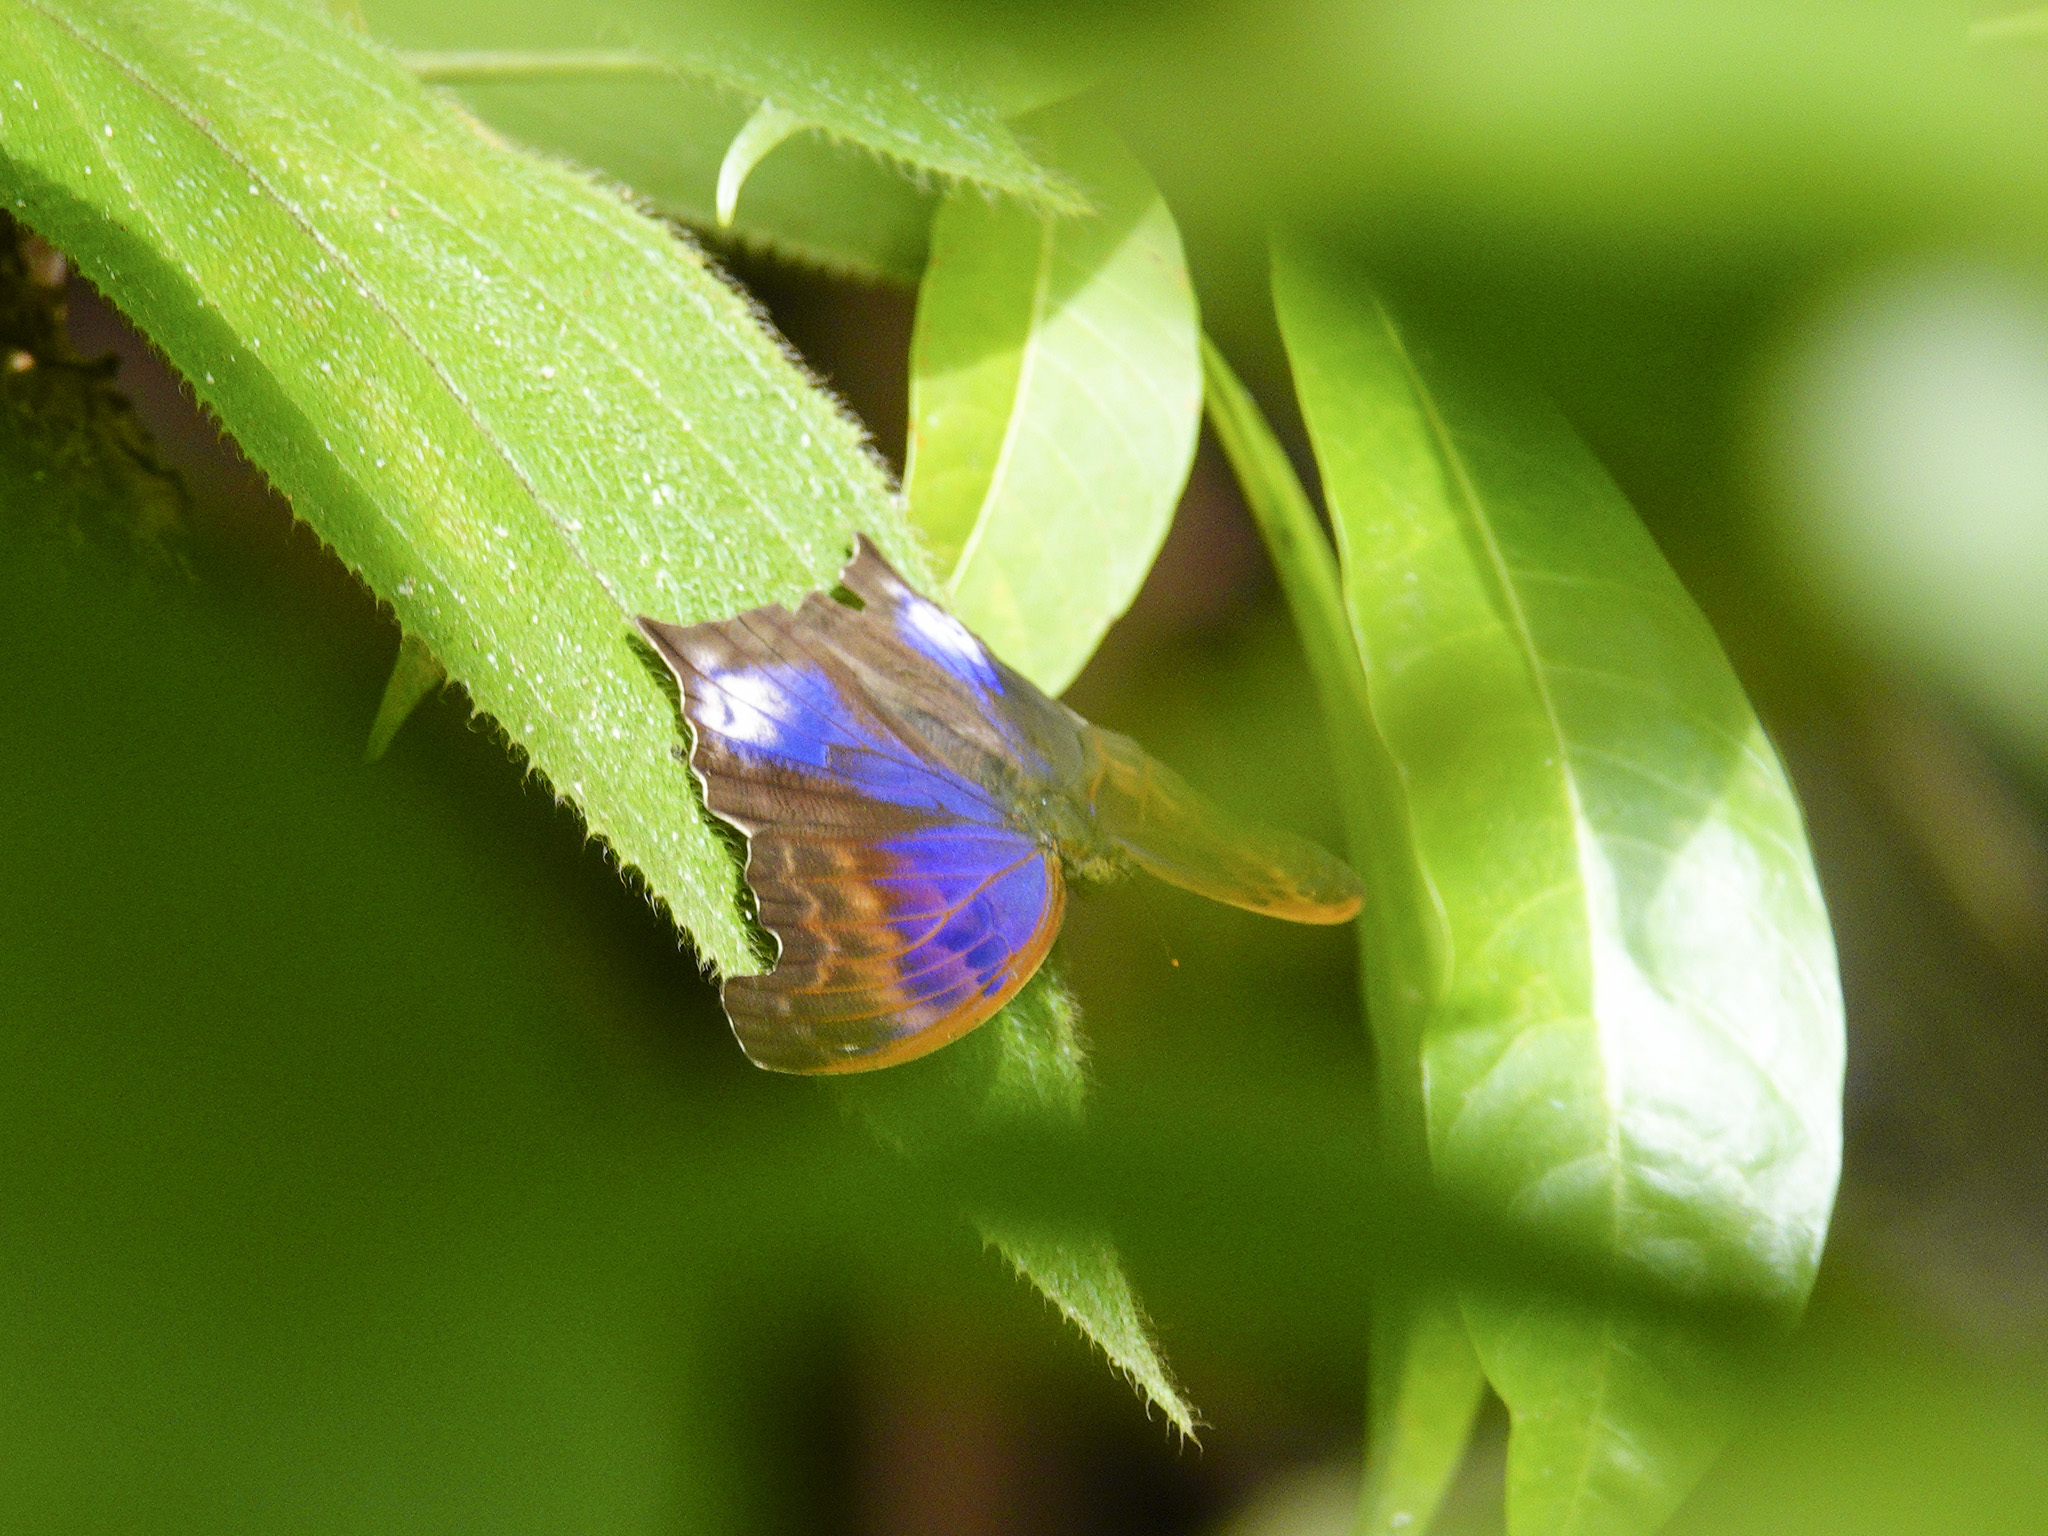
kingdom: Animalia
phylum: Arthropoda
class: Insecta
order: Lepidoptera
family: Nymphalidae
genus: Terinos
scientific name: Terinos atlita
